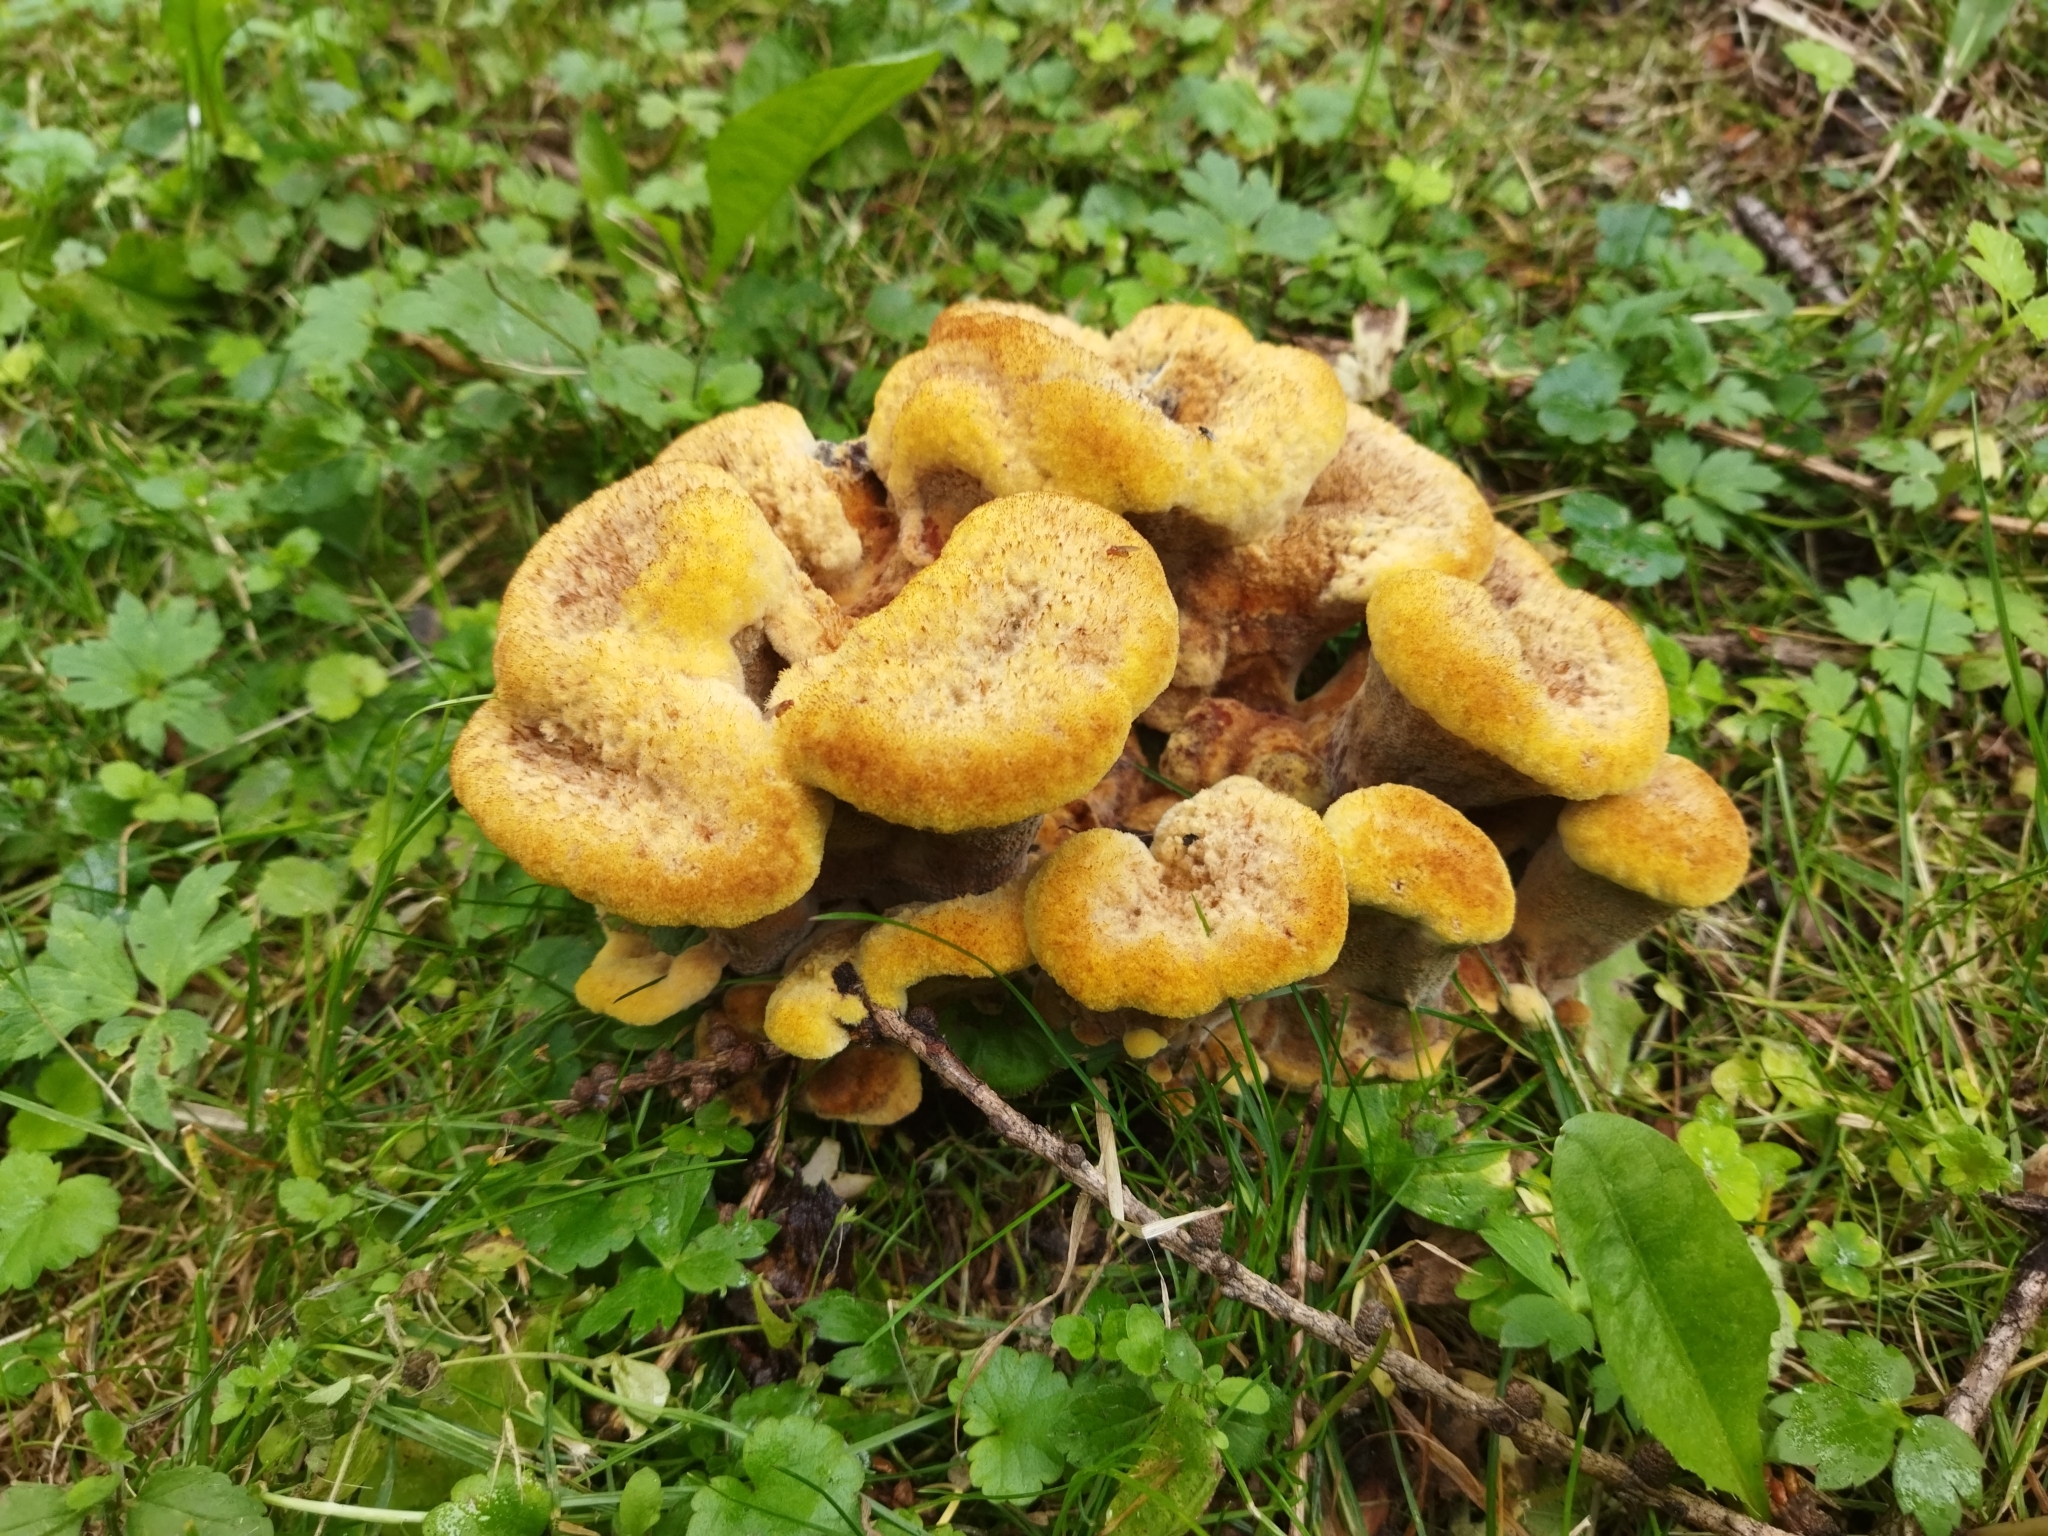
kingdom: Fungi
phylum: Basidiomycota
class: Agaricomycetes
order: Polyporales
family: Laetiporaceae
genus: Phaeolus
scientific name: Phaeolus schweinitzii
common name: Dyer's mazegill
